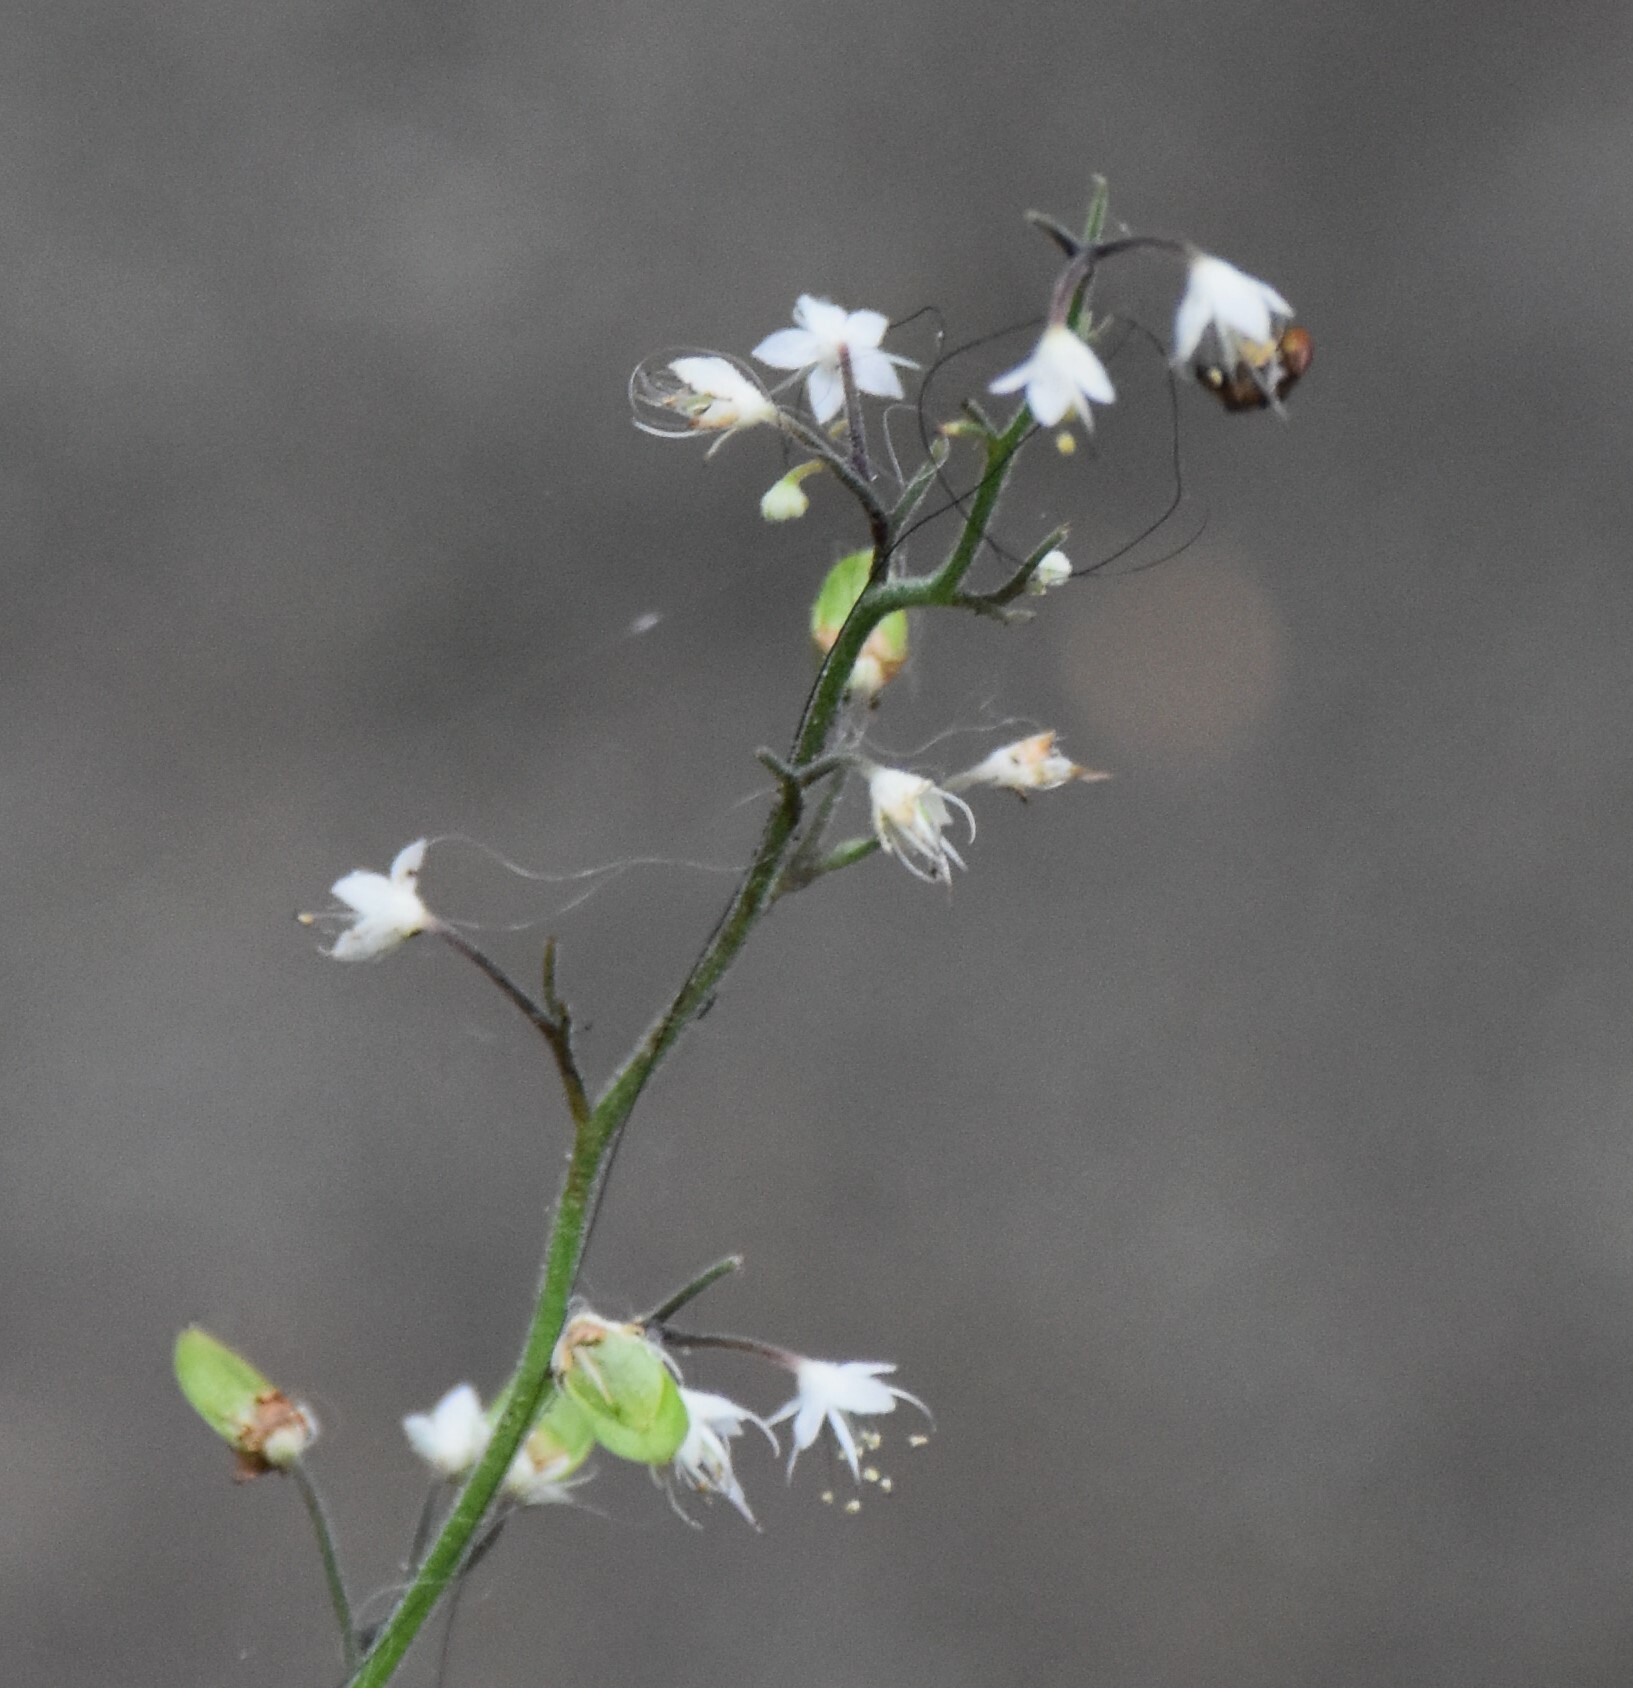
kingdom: Plantae
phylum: Tracheophyta
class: Magnoliopsida
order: Saxifragales
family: Saxifragaceae
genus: Tiarella
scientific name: Tiarella trifoliata
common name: Sugar-scoop
